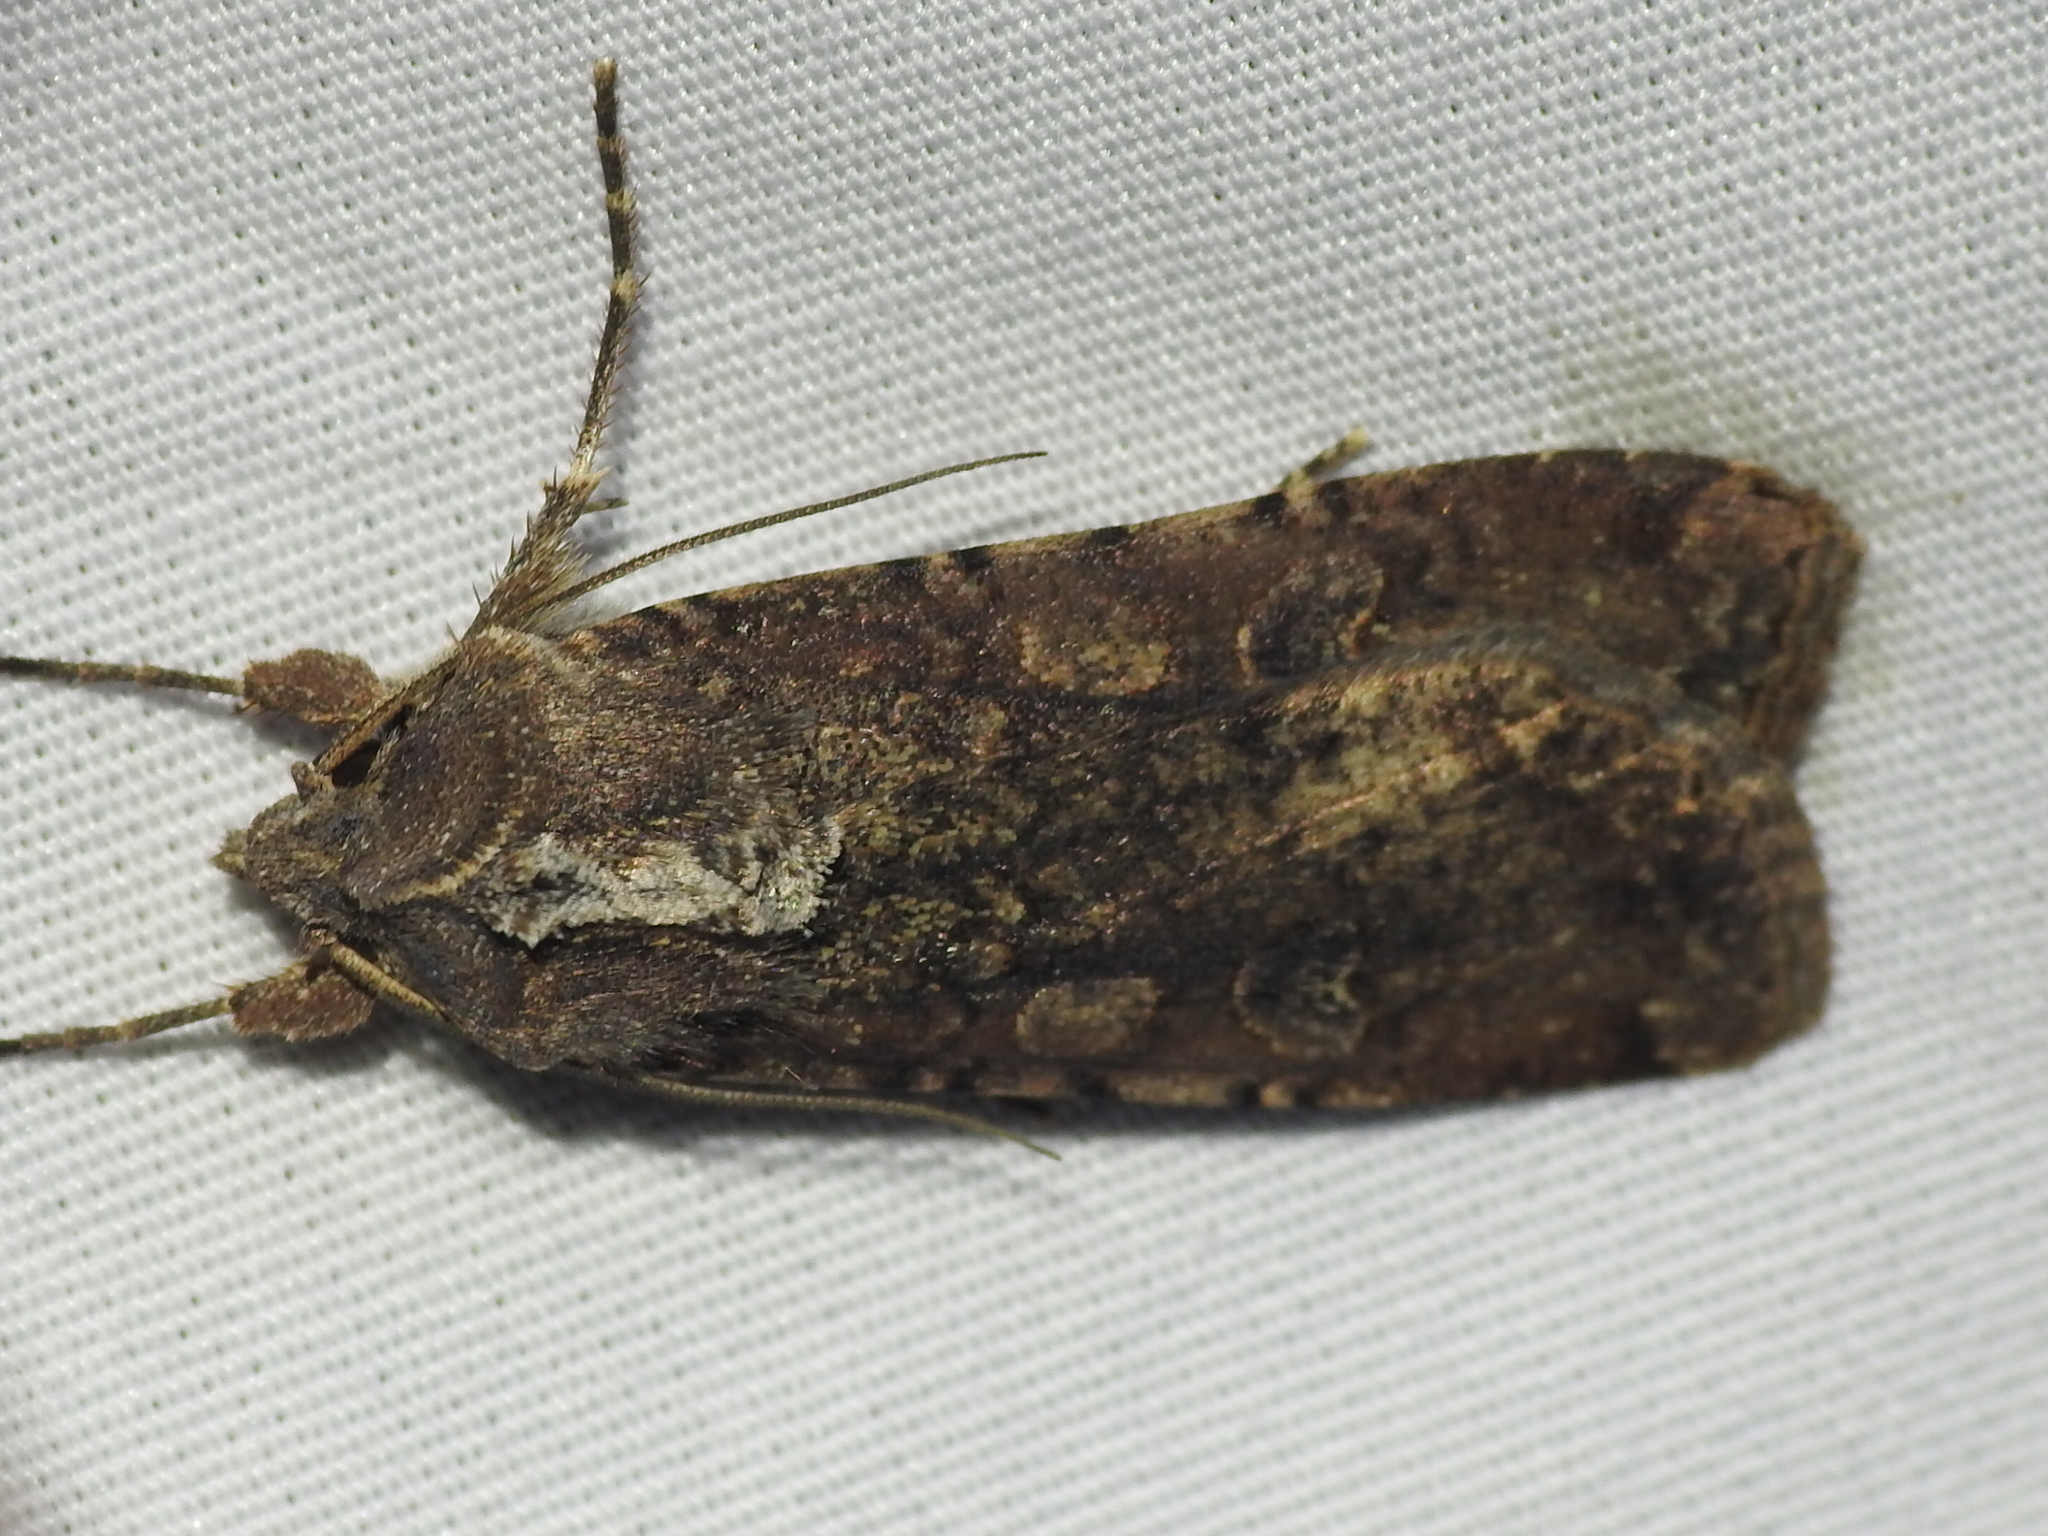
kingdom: Animalia
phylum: Arthropoda
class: Insecta
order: Lepidoptera
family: Noctuidae
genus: Peridroma
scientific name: Peridroma saucia
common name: Pearly underwing
